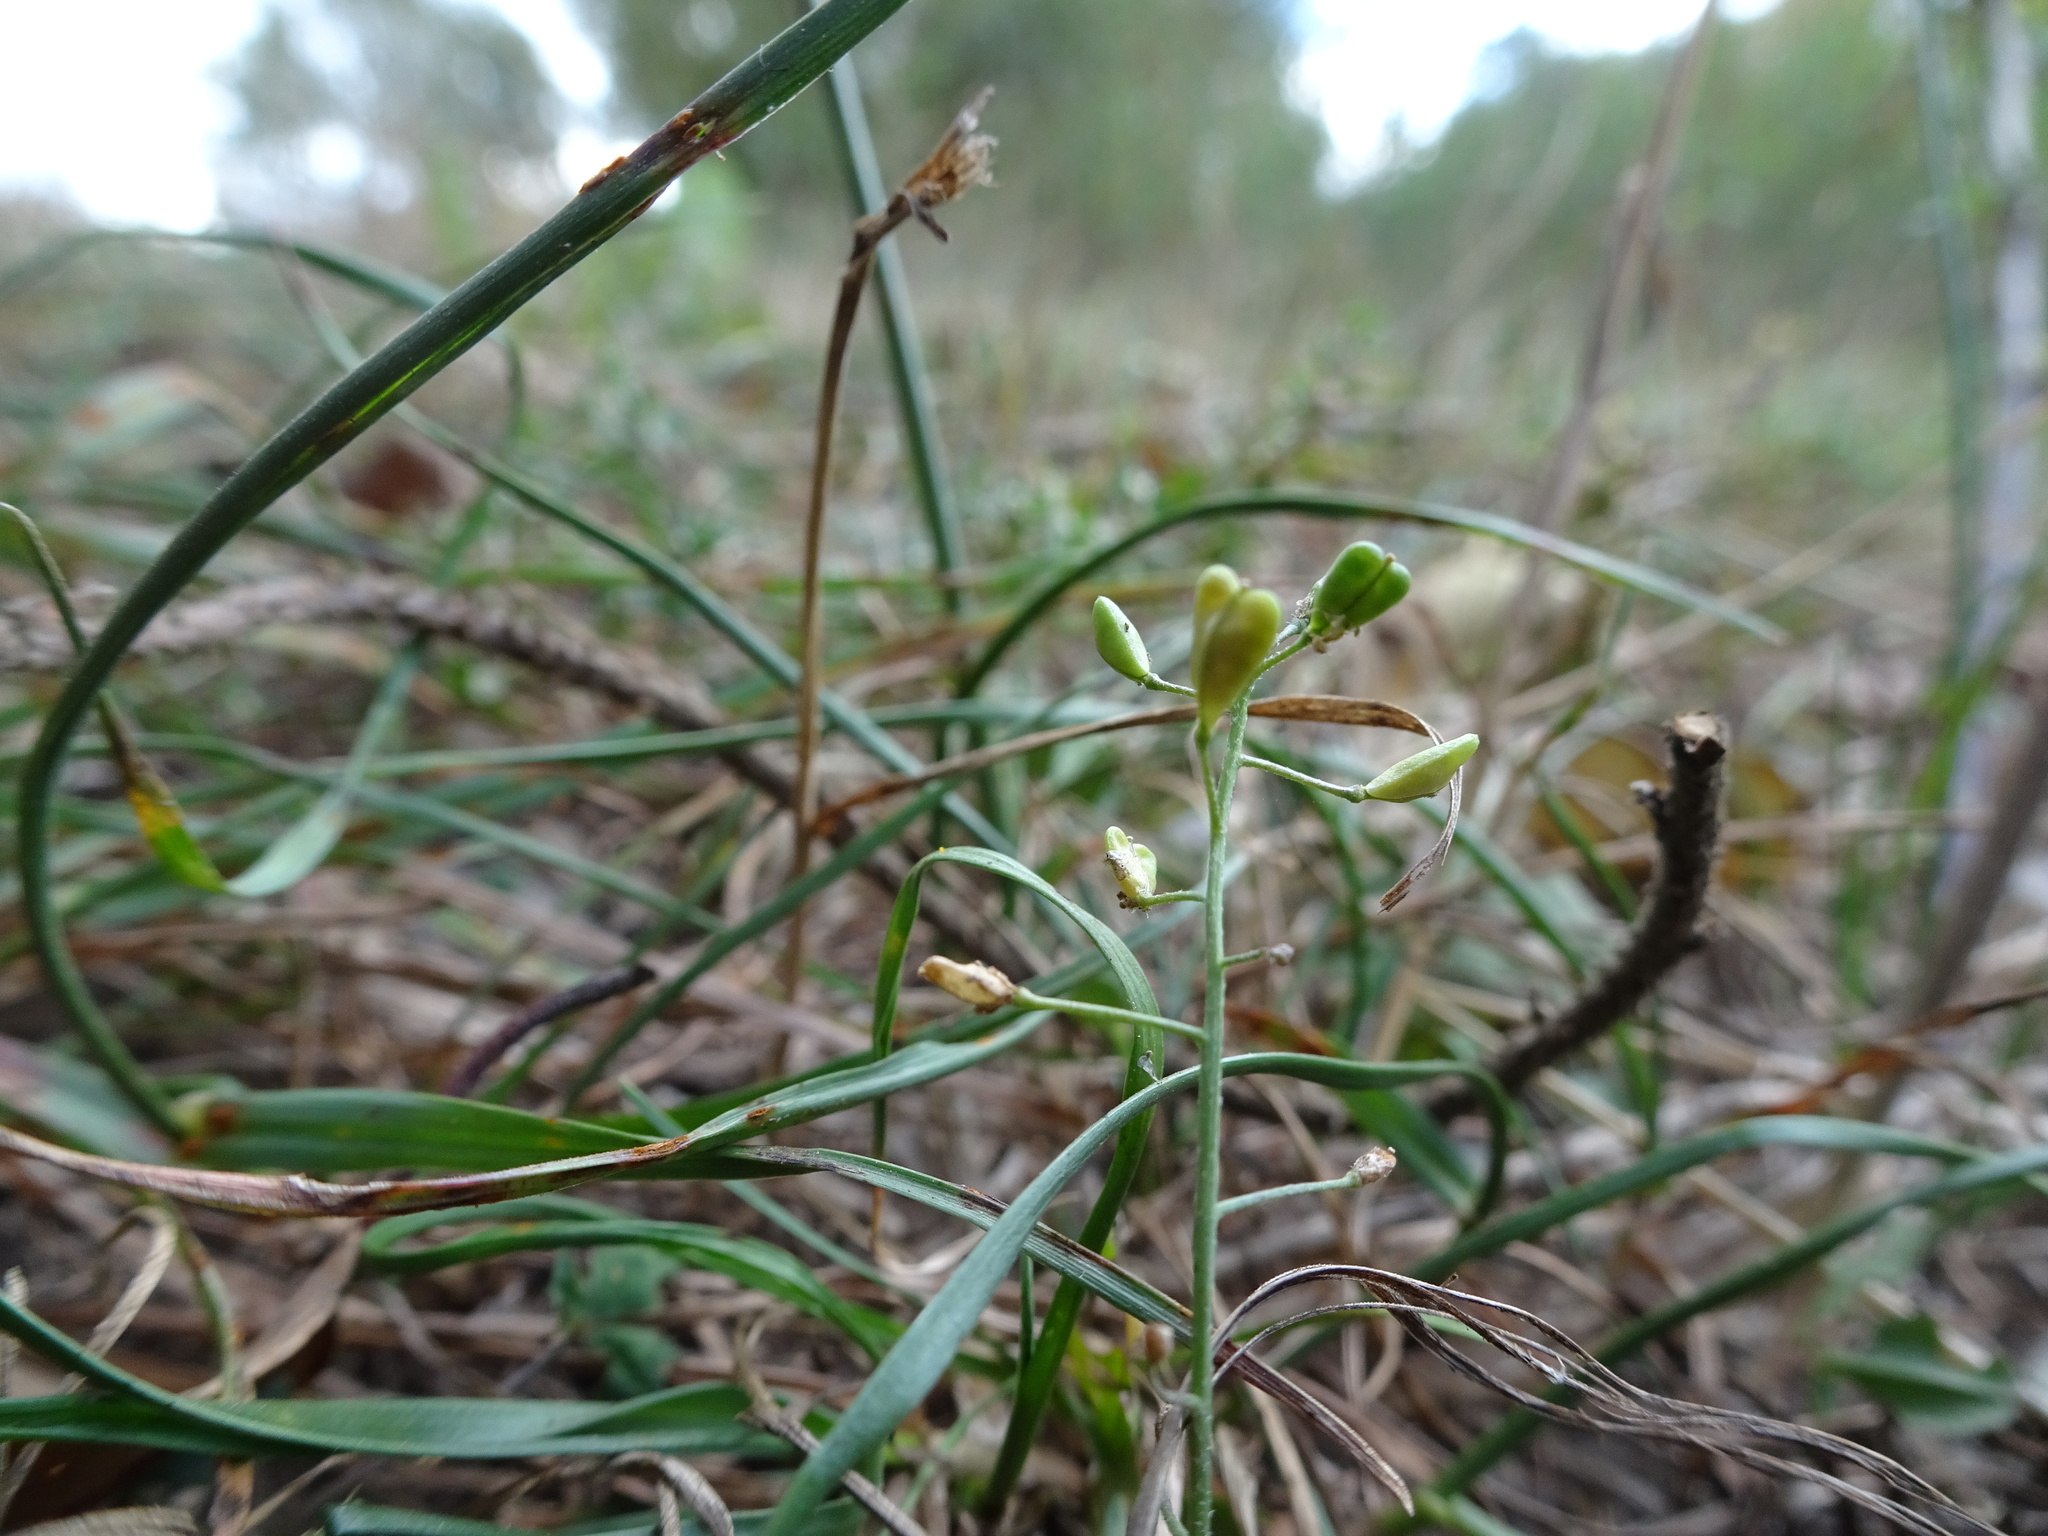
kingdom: Plantae
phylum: Tracheophyta
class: Magnoliopsida
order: Brassicales
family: Brassicaceae
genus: Capsella
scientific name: Capsella bursa-pastoris
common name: Shepherd's purse
